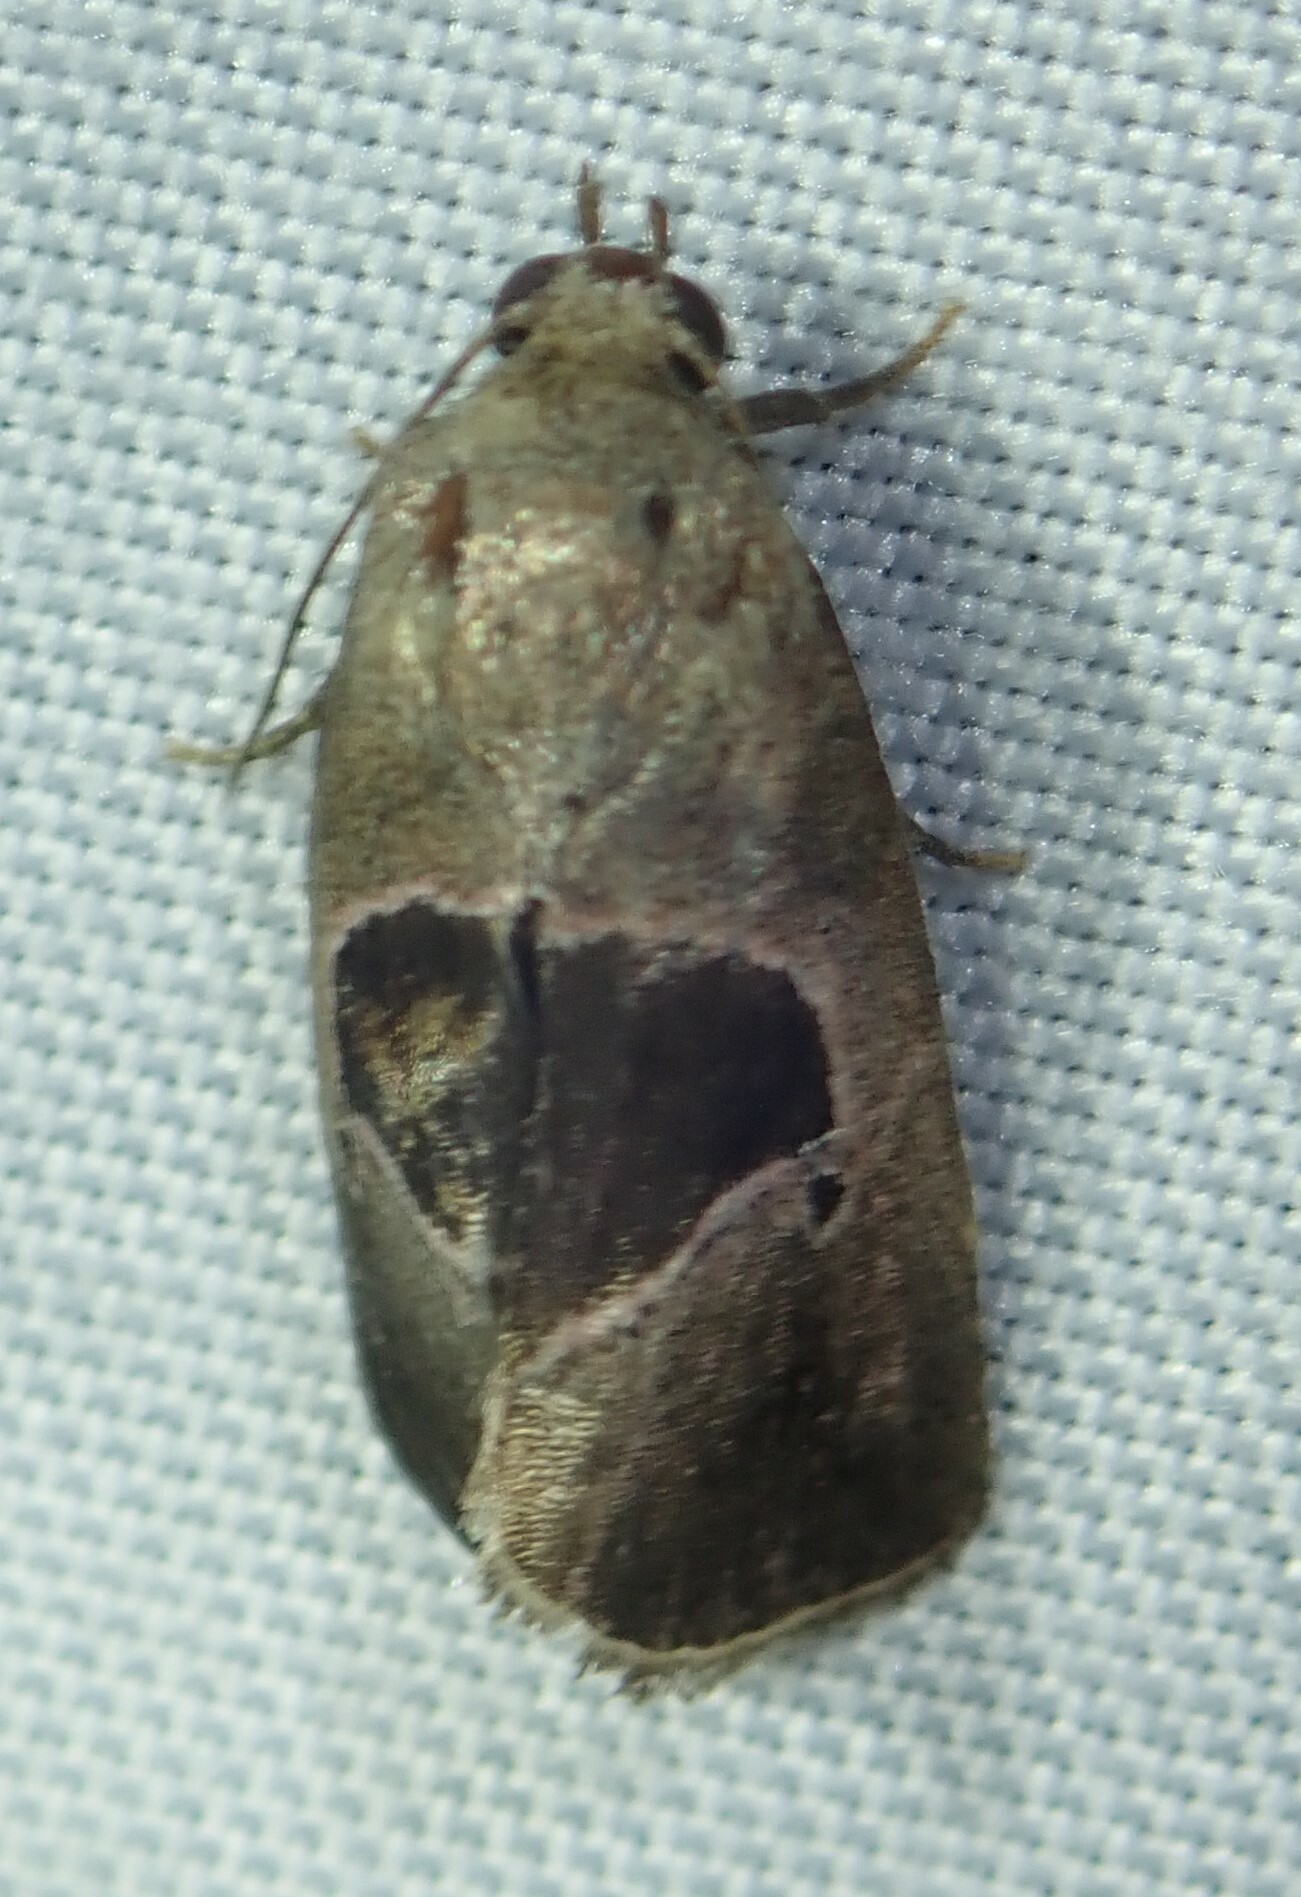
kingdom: Animalia
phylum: Arthropoda
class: Insecta
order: Lepidoptera
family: Noctuidae
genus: Elaphria
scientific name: Elaphria deltoides
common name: Cutworm moth
